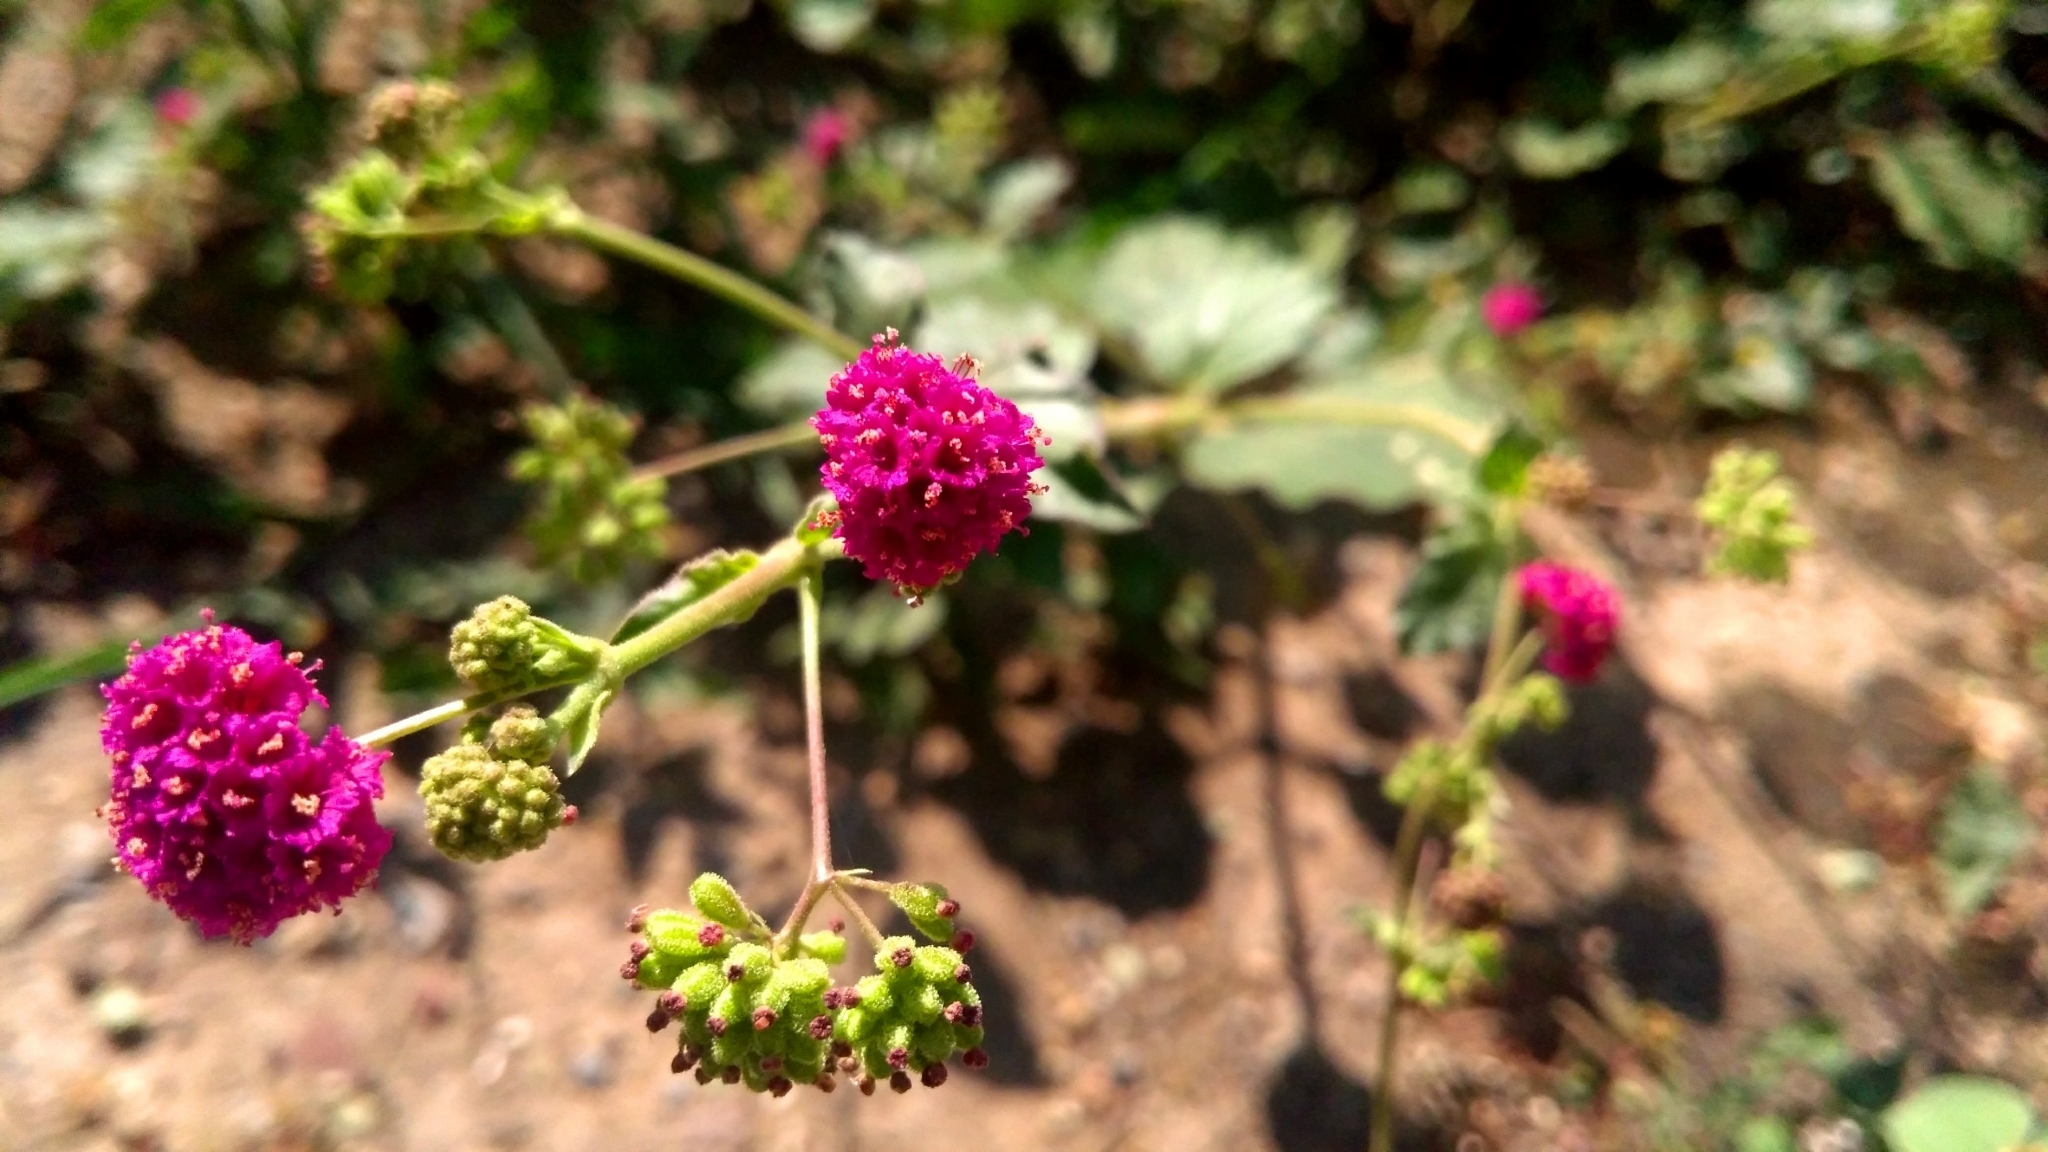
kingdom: Plantae
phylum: Tracheophyta
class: Magnoliopsida
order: Caryophyllales
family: Nyctaginaceae
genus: Boerhavia
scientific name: Boerhavia coccinea
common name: Scarlet spiderling
